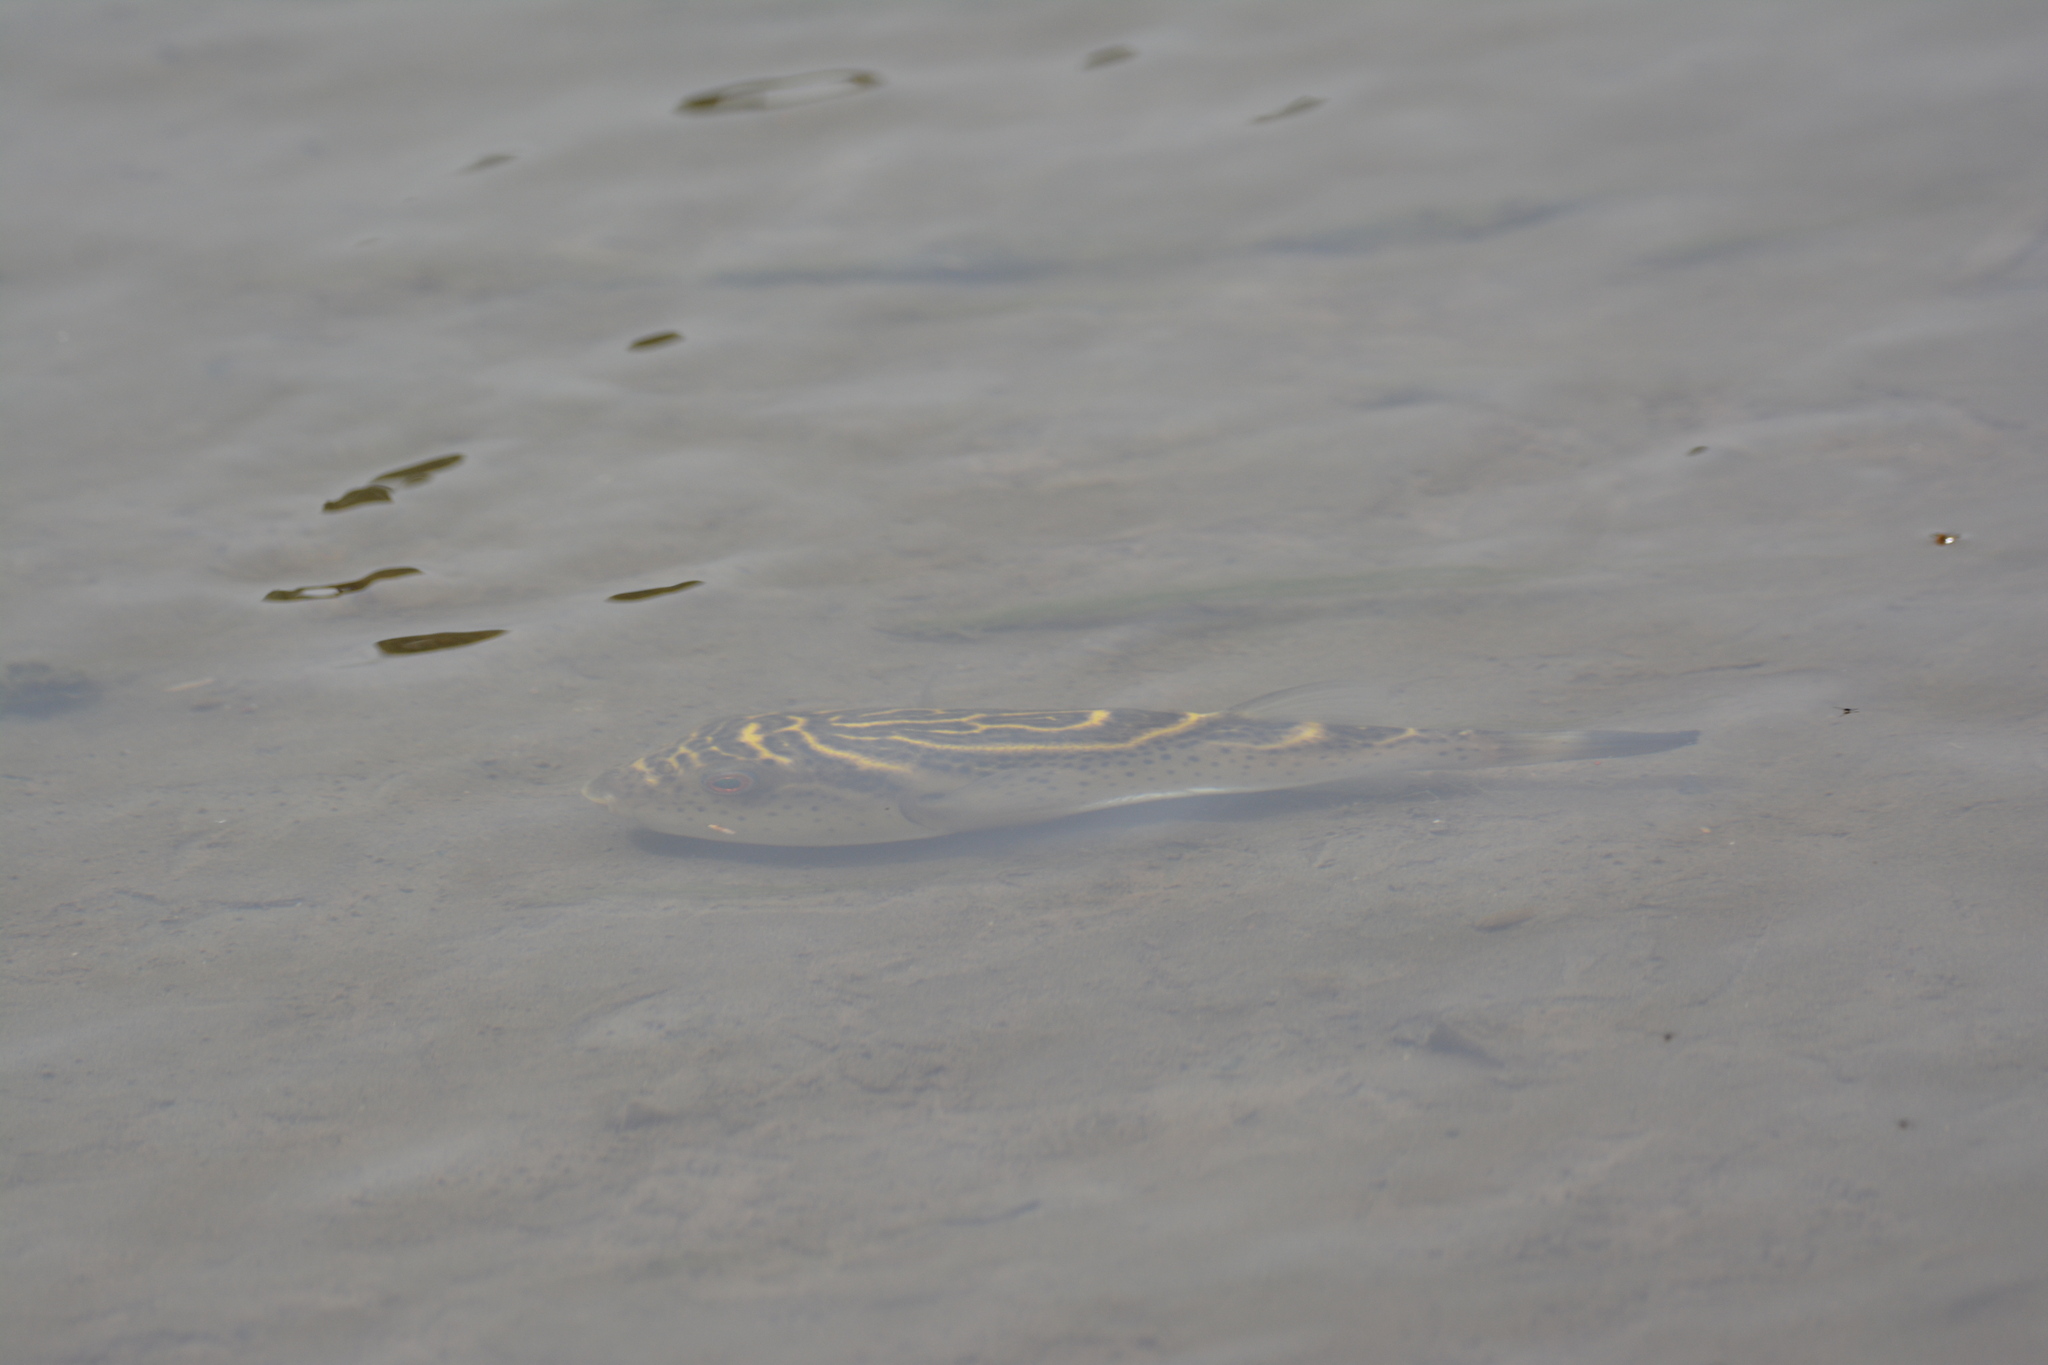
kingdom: Animalia
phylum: Chordata
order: Tetraodontiformes
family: Tetraodontidae
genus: Sphoeroides
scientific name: Sphoeroides rosenblatti
